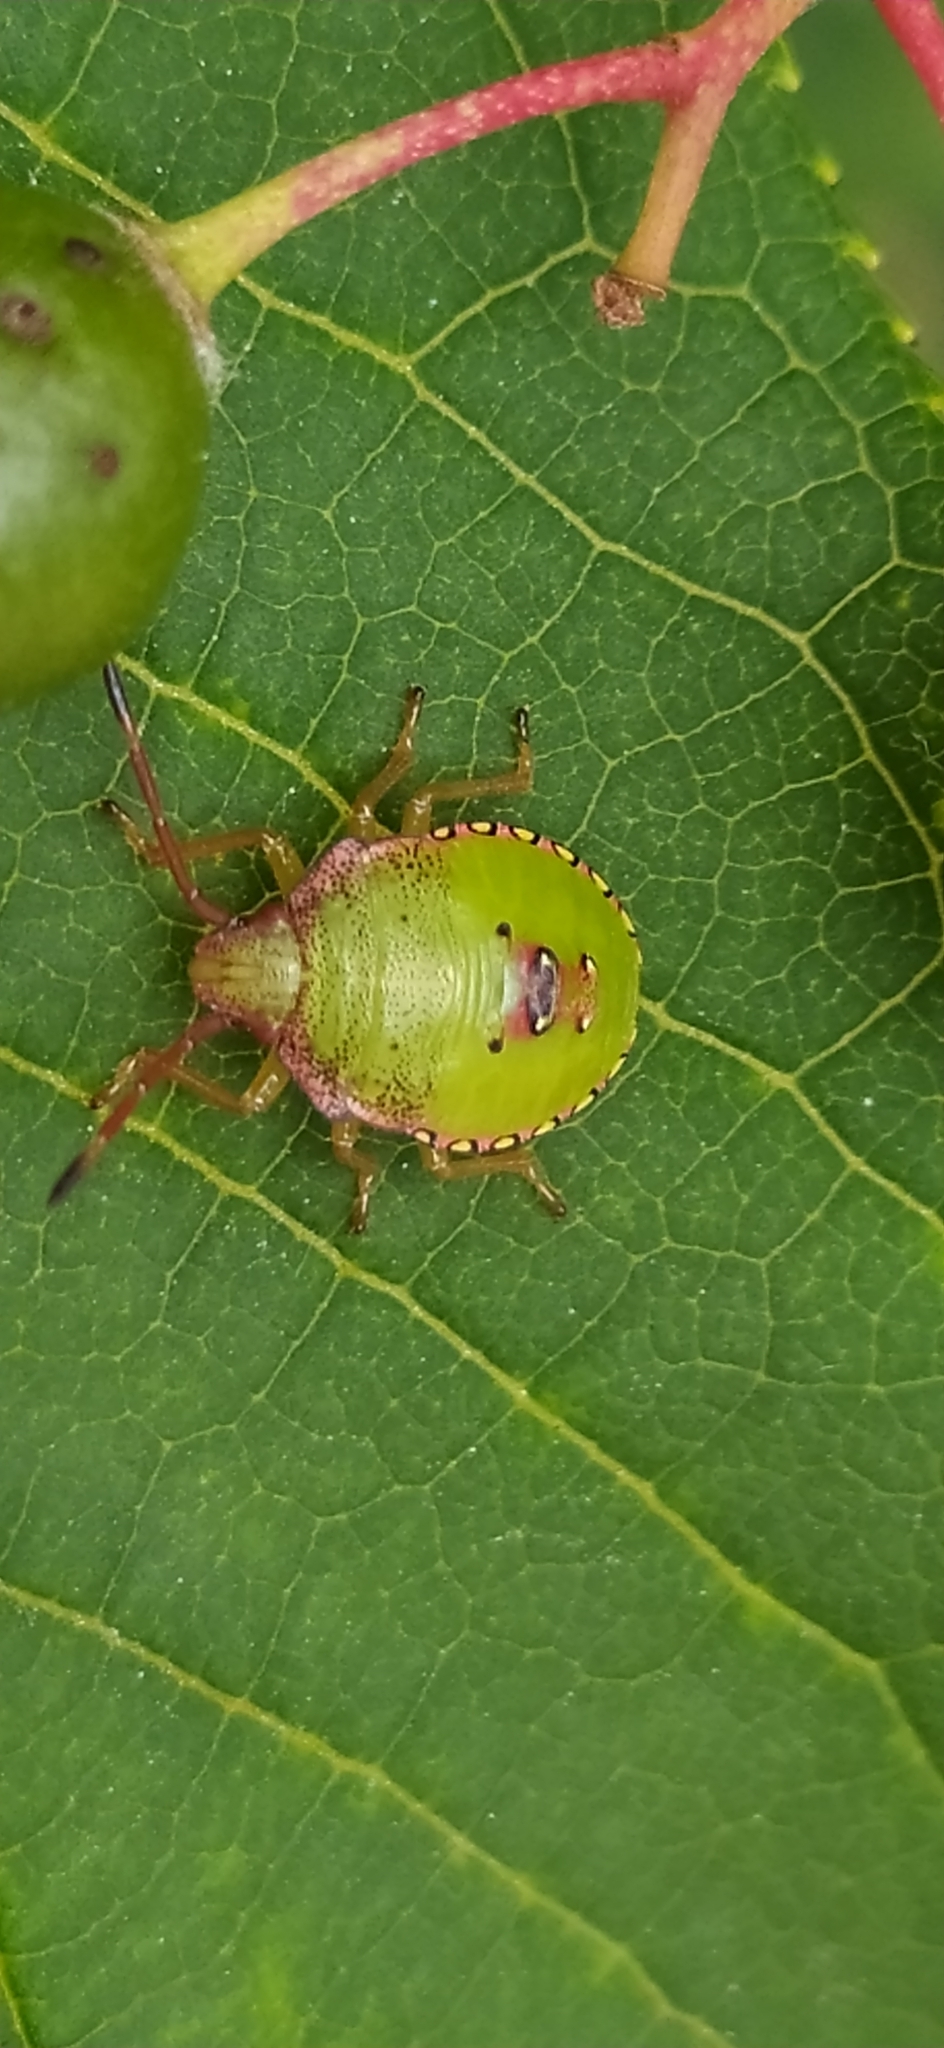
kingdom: Animalia
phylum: Arthropoda
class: Insecta
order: Hemiptera
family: Acanthosomatidae
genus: Acanthosoma
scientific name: Acanthosoma haemorrhoidale
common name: Hawthorn shieldbug
